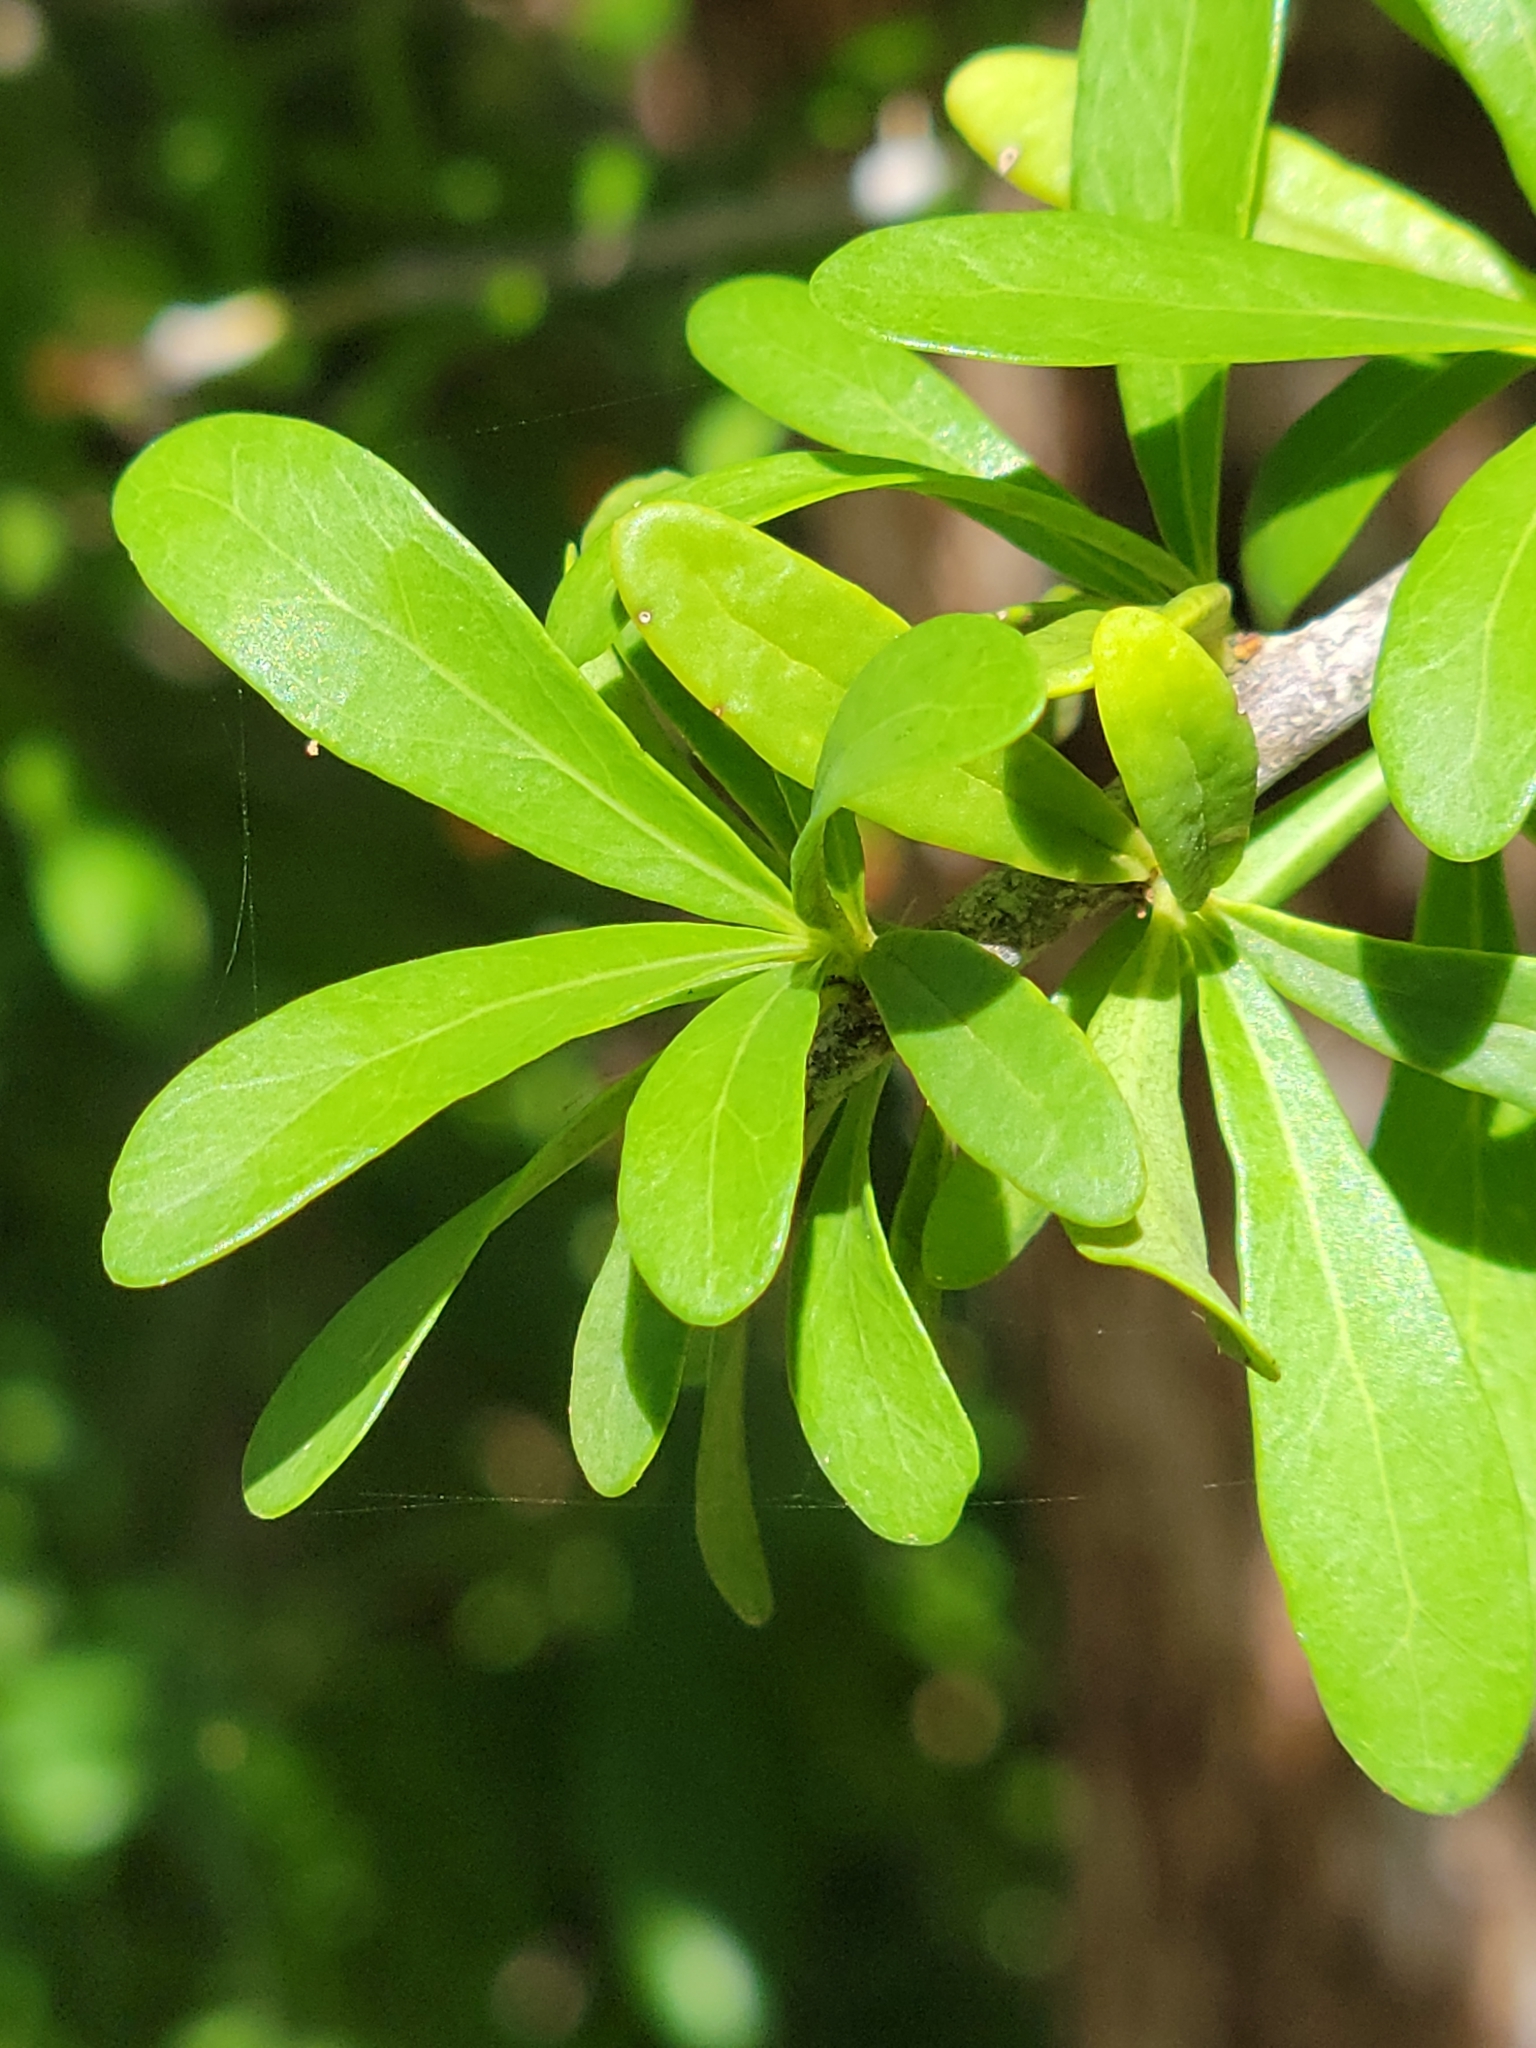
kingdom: Plantae
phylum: Tracheophyta
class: Magnoliopsida
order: Ericales
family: Sapotaceae
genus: Sideroxylon
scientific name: Sideroxylon celastrinum
